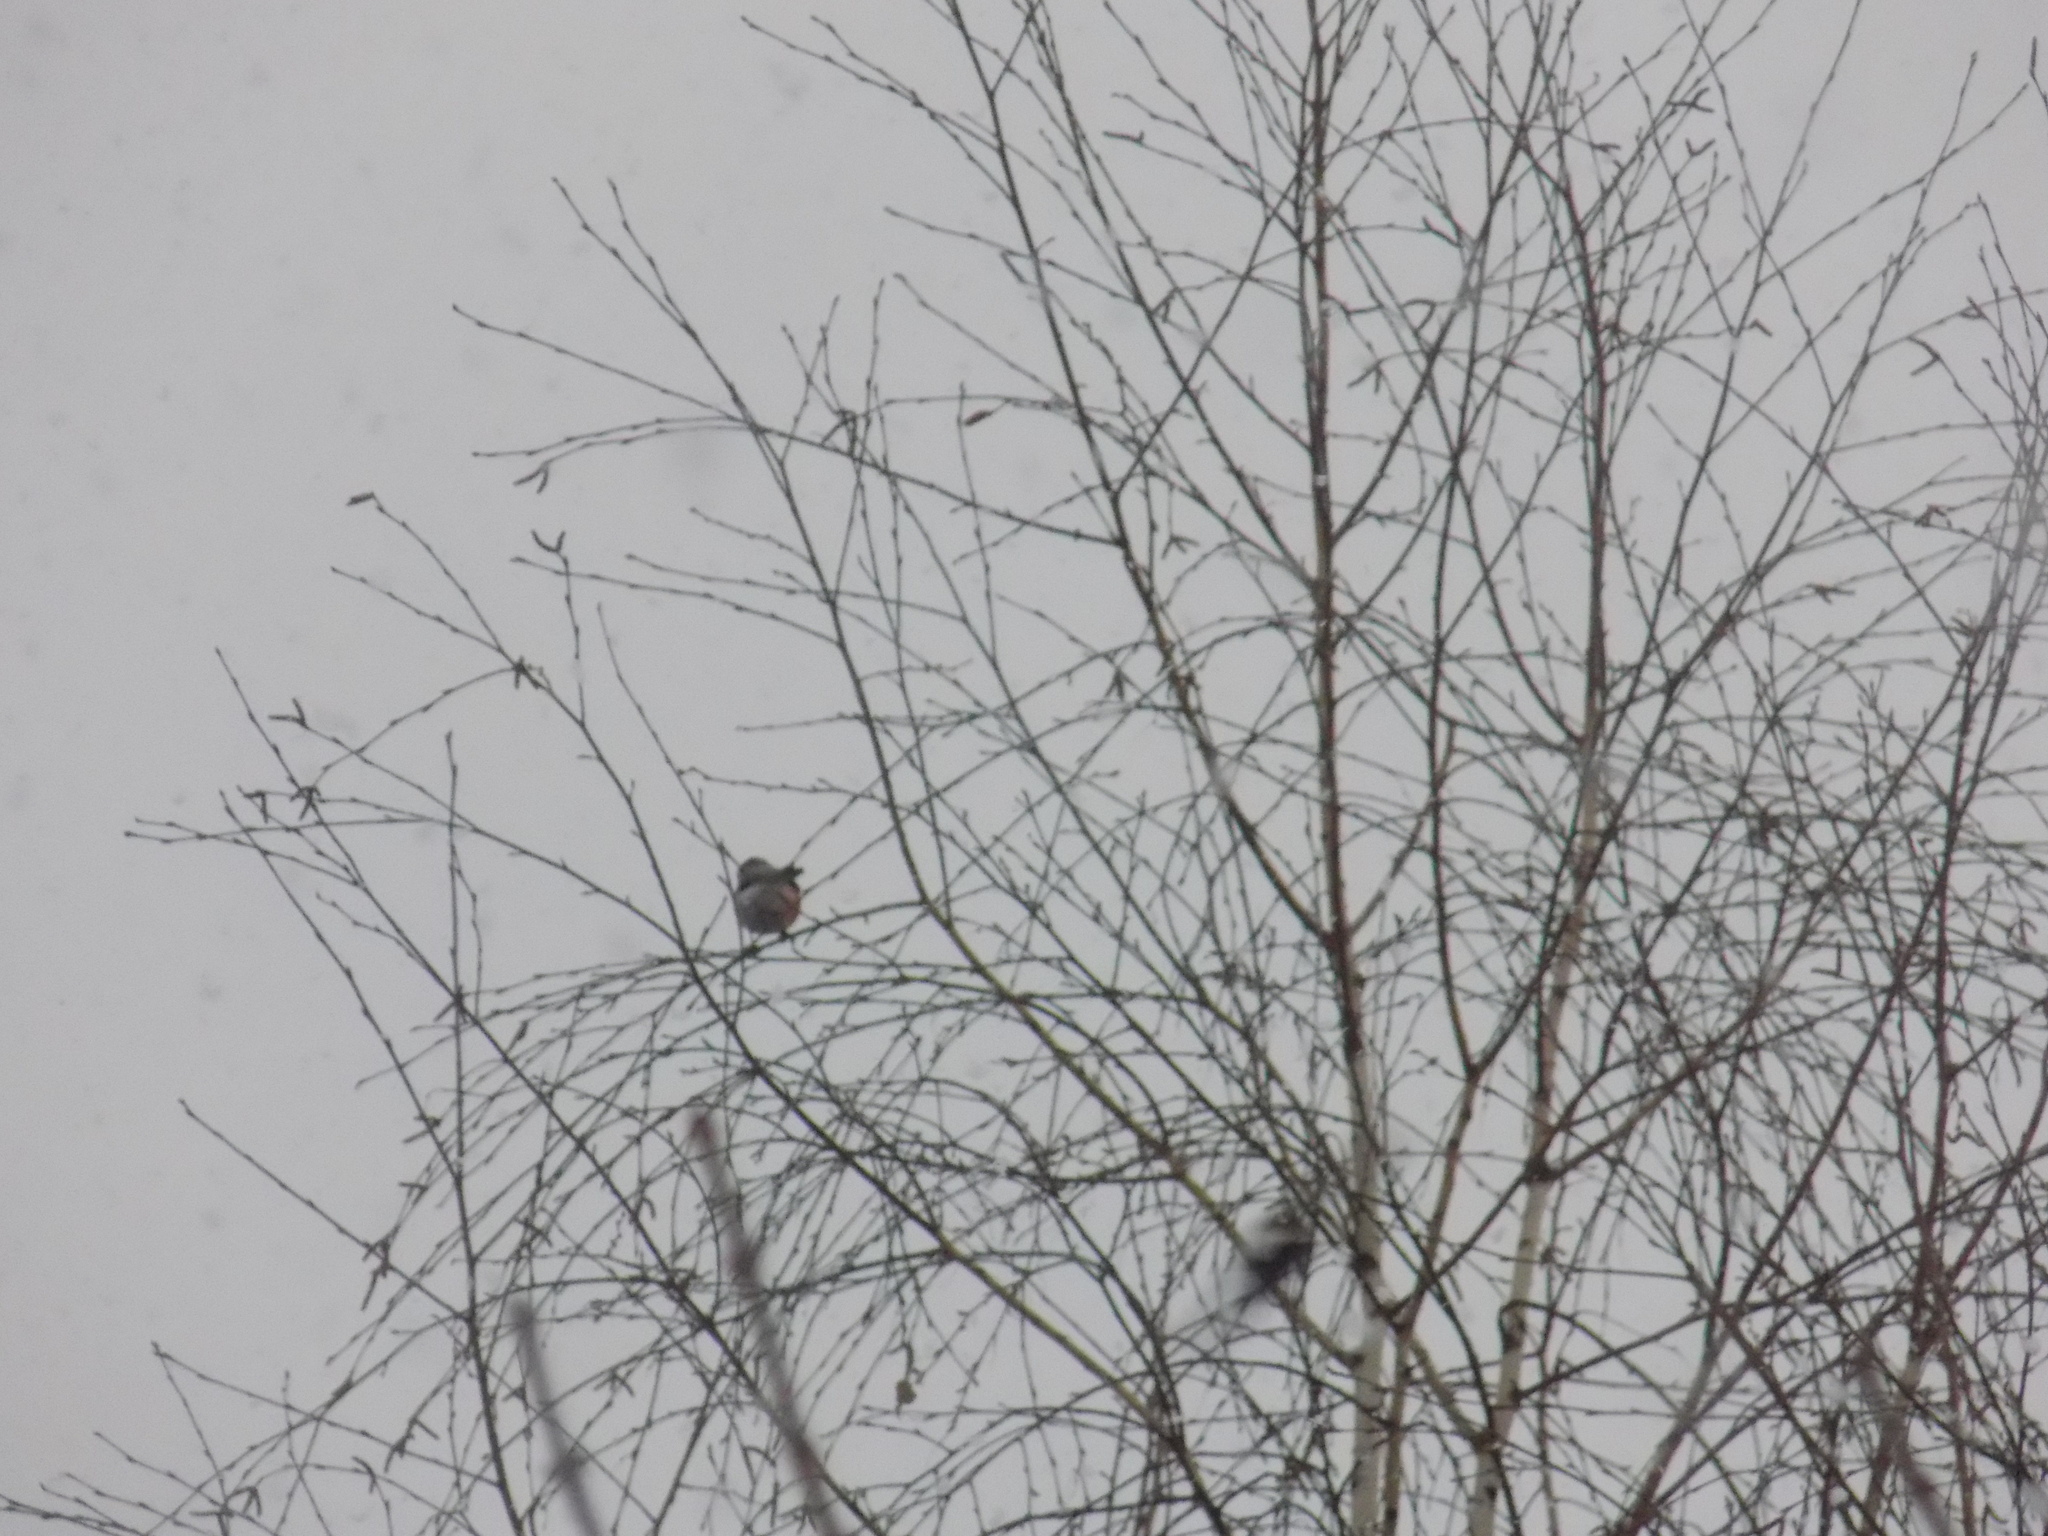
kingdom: Animalia
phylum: Chordata
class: Aves
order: Passeriformes
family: Fringillidae
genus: Pyrrhula
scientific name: Pyrrhula pyrrhula
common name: Eurasian bullfinch
